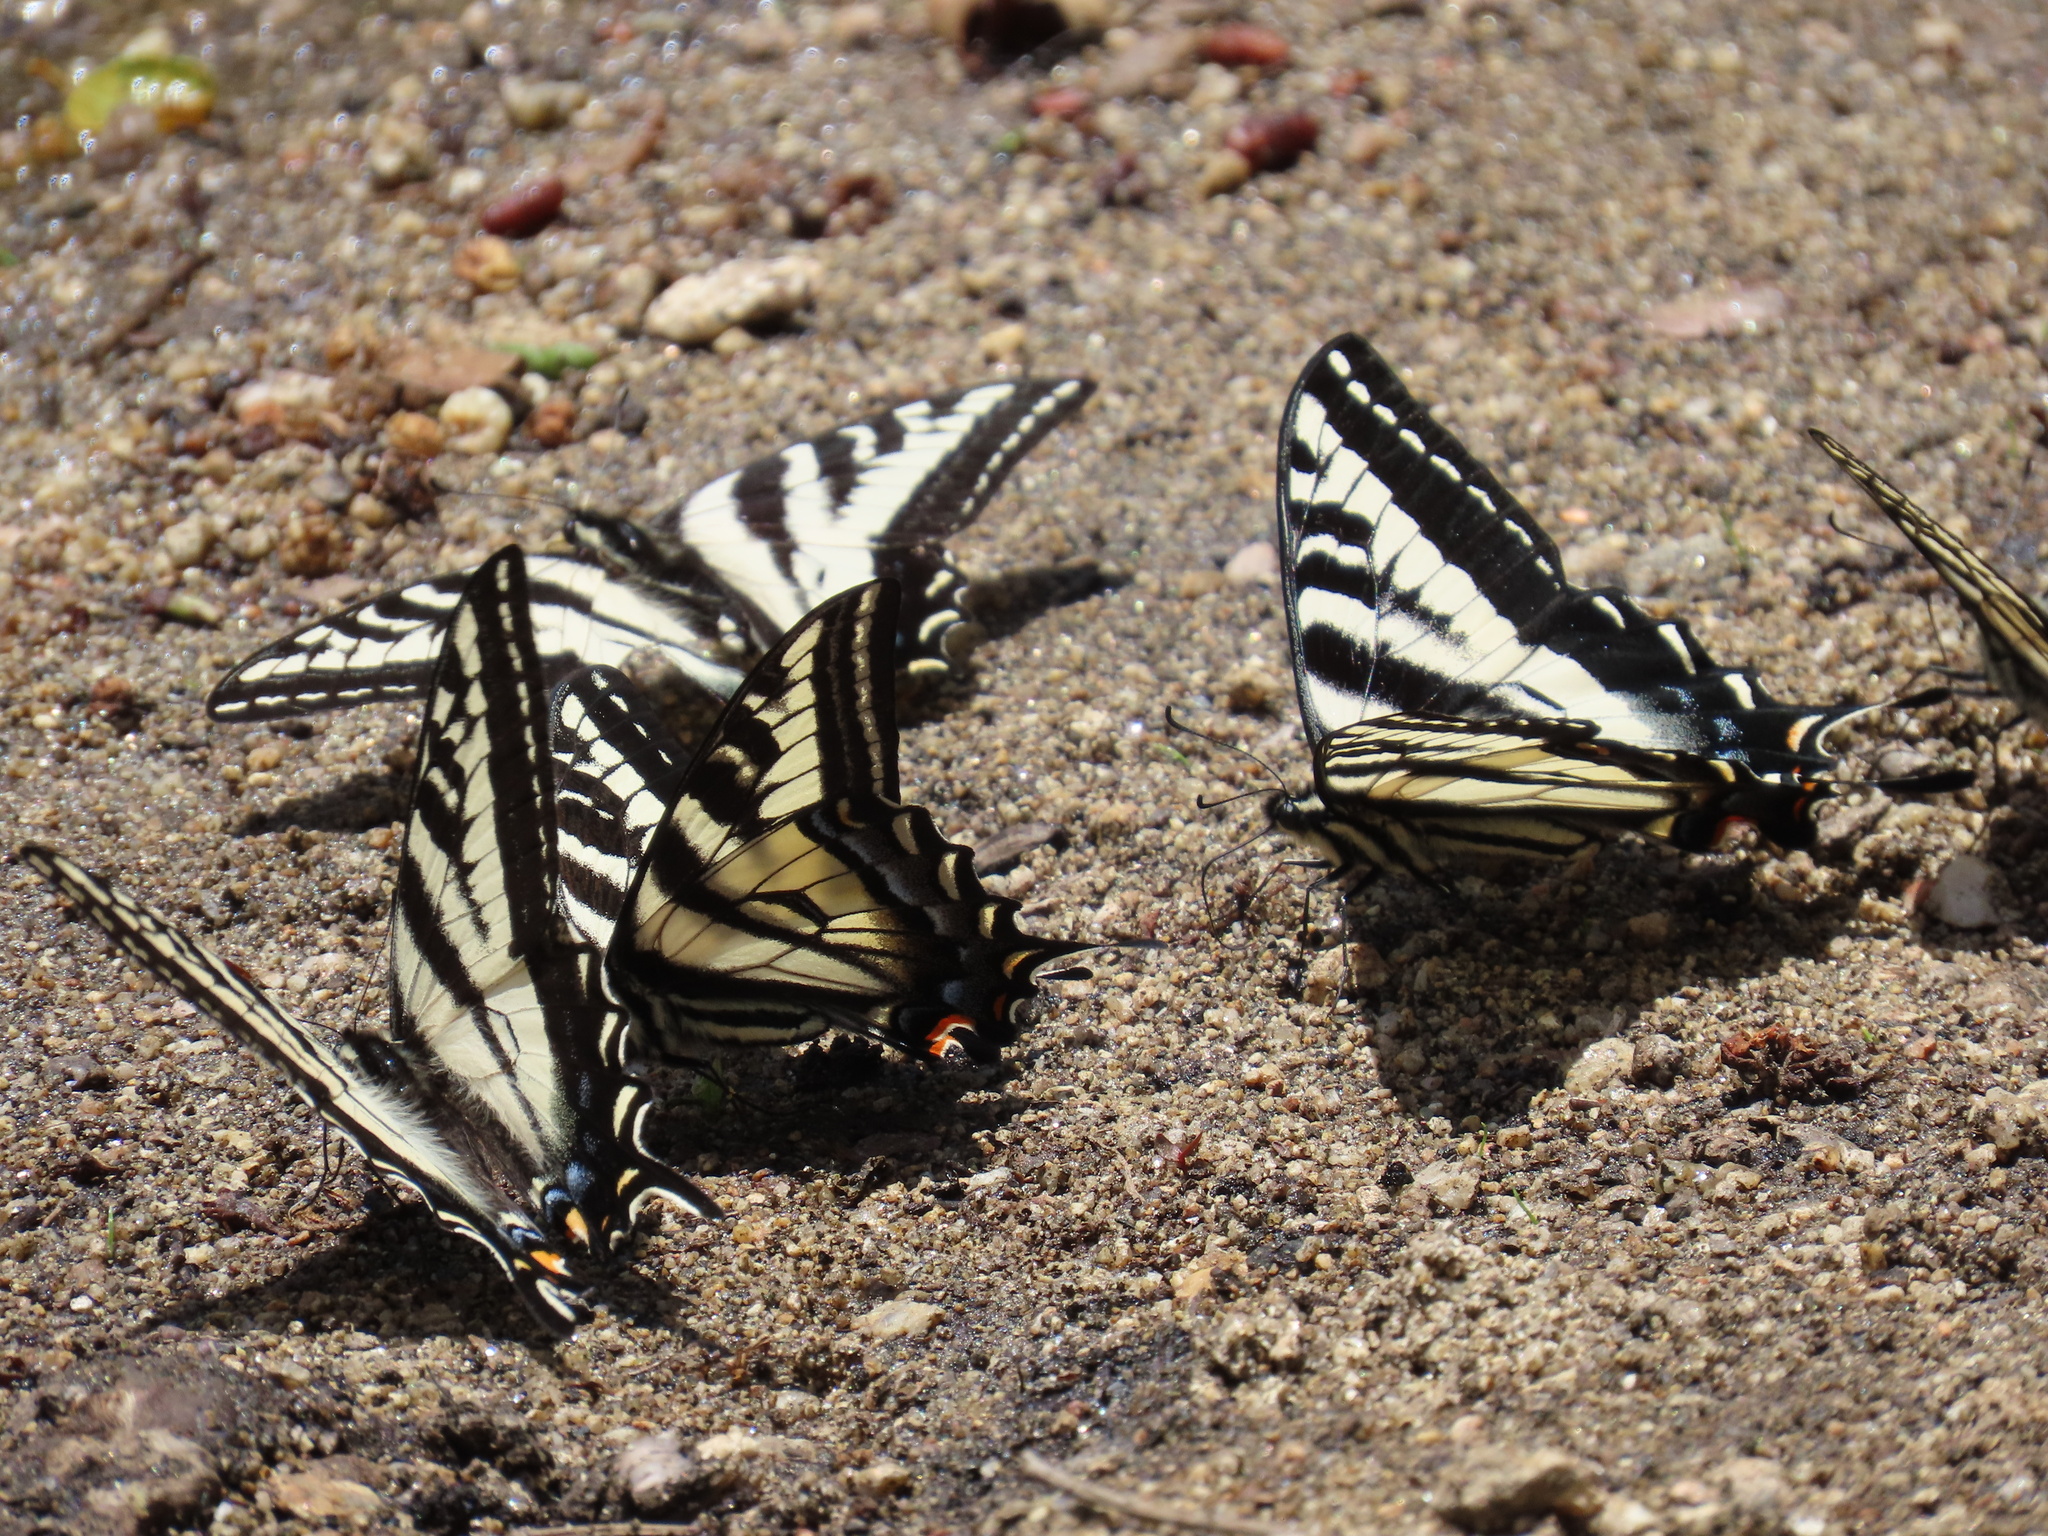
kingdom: Animalia
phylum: Arthropoda
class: Insecta
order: Lepidoptera
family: Papilionidae
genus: Papilio
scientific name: Papilio eurymedon
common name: Pale tiger swallowtail
